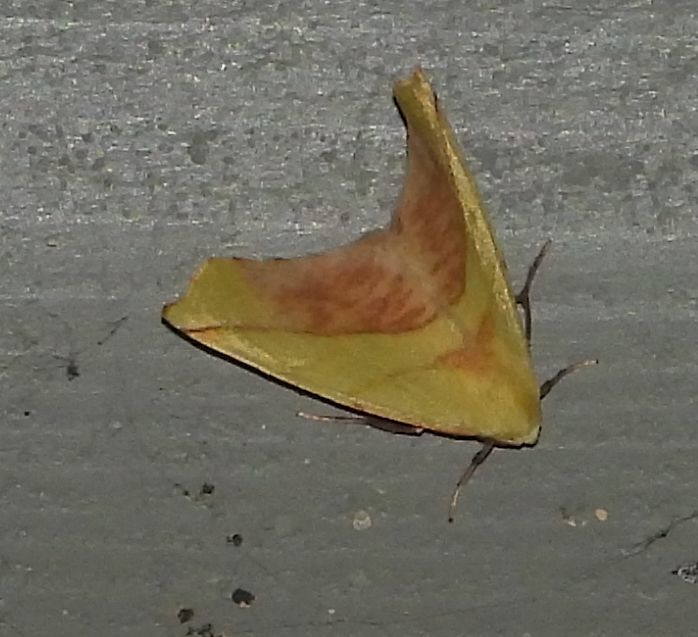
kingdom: Animalia
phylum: Arthropoda
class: Insecta
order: Lepidoptera
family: Geometridae
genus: Sicya
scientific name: Sicya macularia
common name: Sharp-lined yellow
